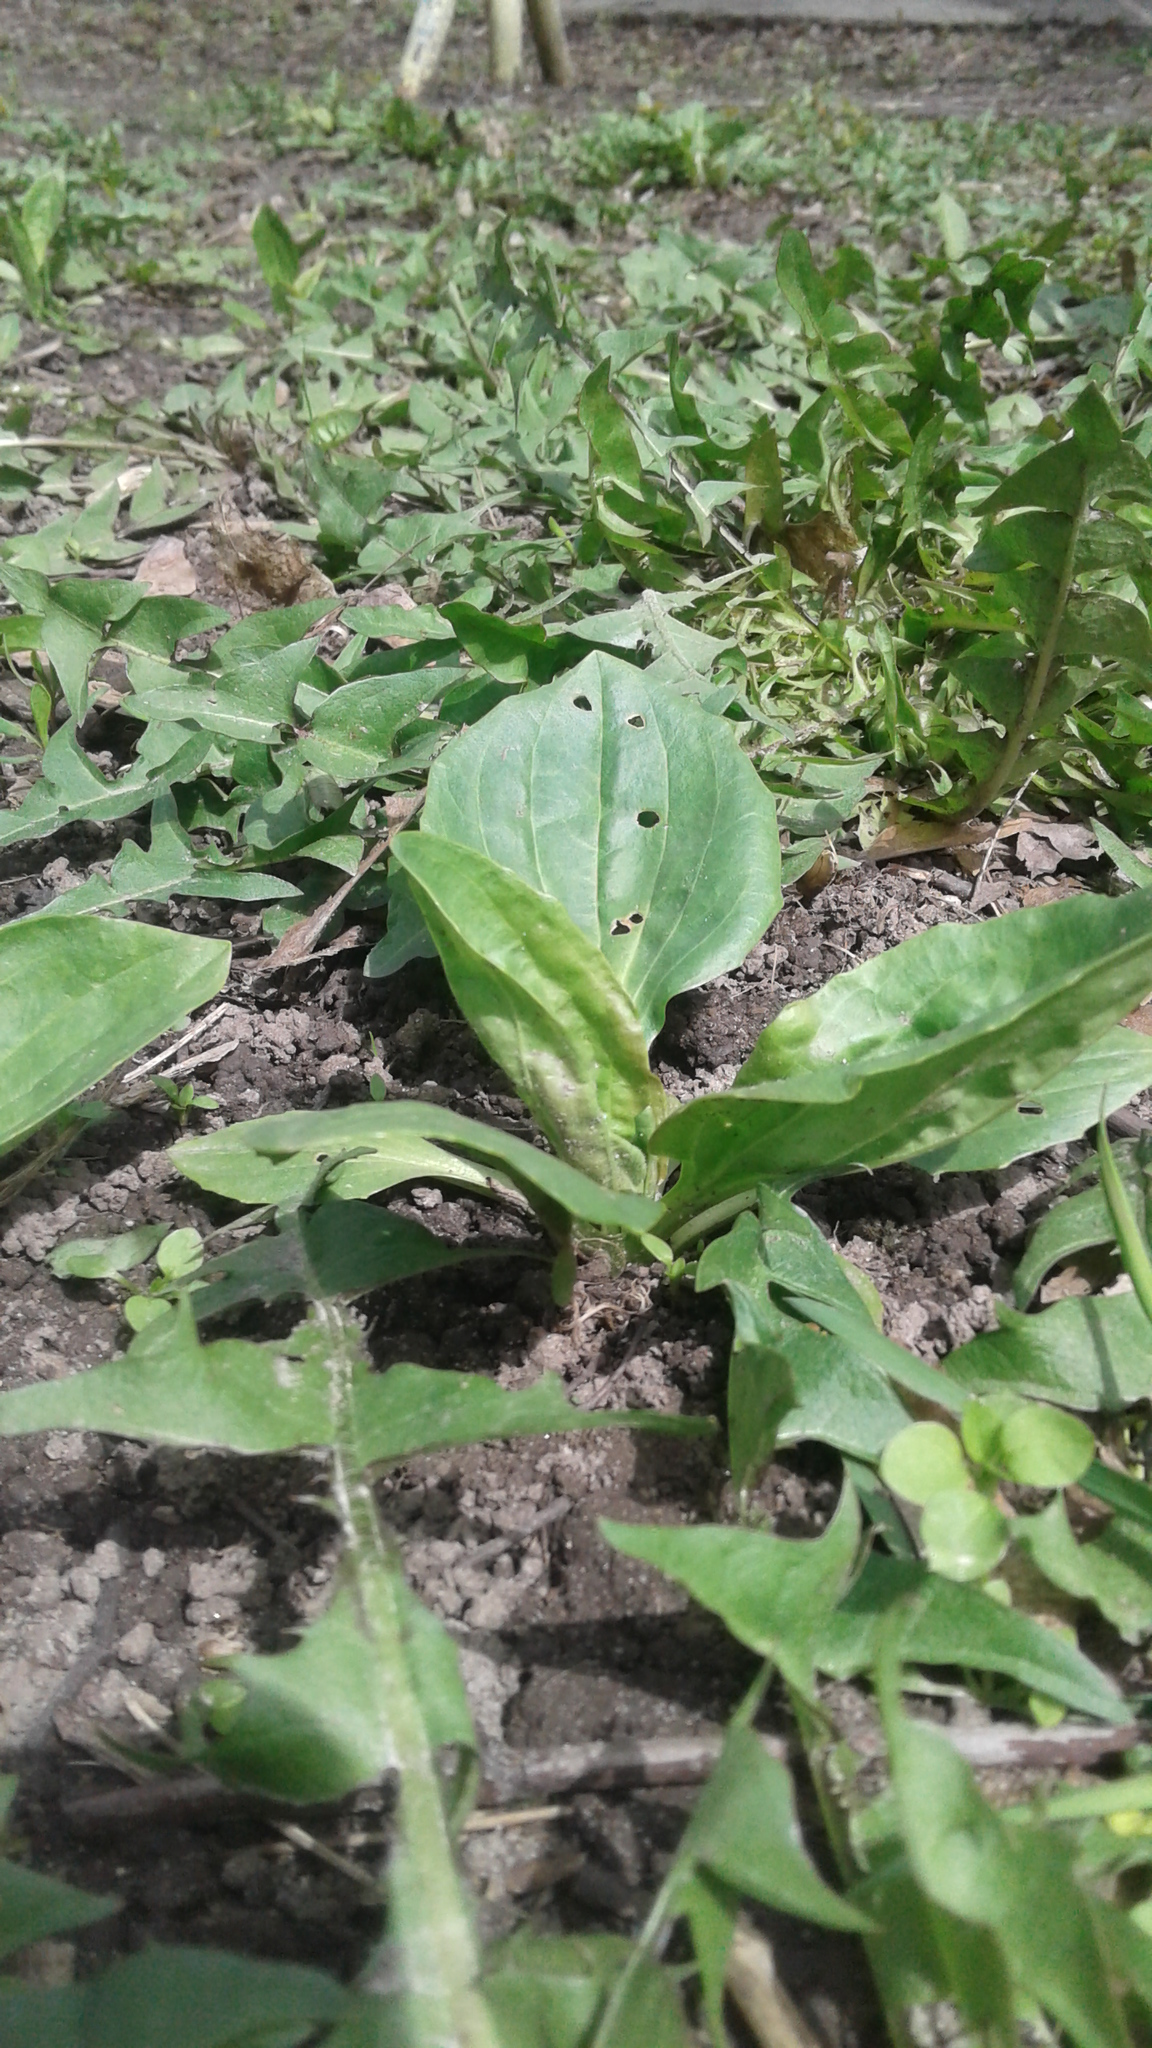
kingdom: Plantae
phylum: Tracheophyta
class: Magnoliopsida
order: Lamiales
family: Plantaginaceae
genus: Plantago
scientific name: Plantago major
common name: Common plantain
